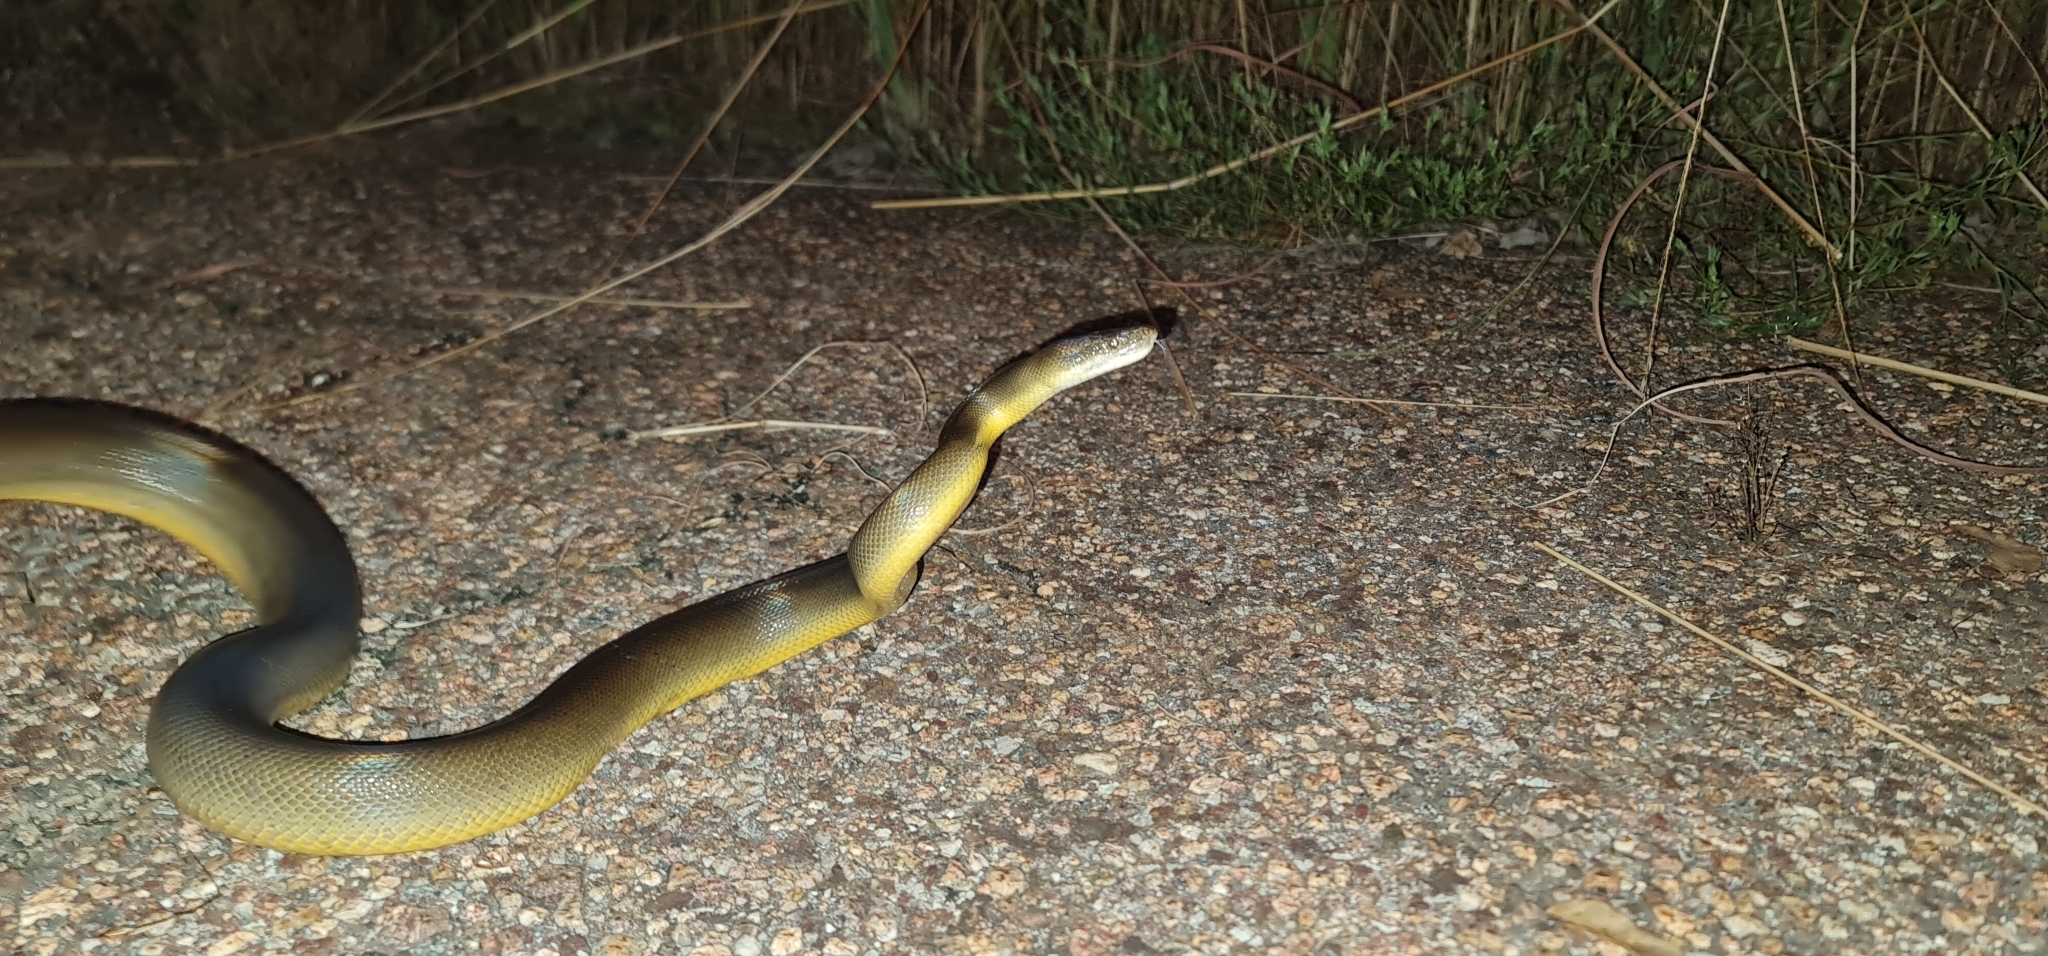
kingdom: Animalia
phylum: Chordata
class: Squamata
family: Pythonidae
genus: Liasis
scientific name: Liasis fuscus
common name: Brown water python
